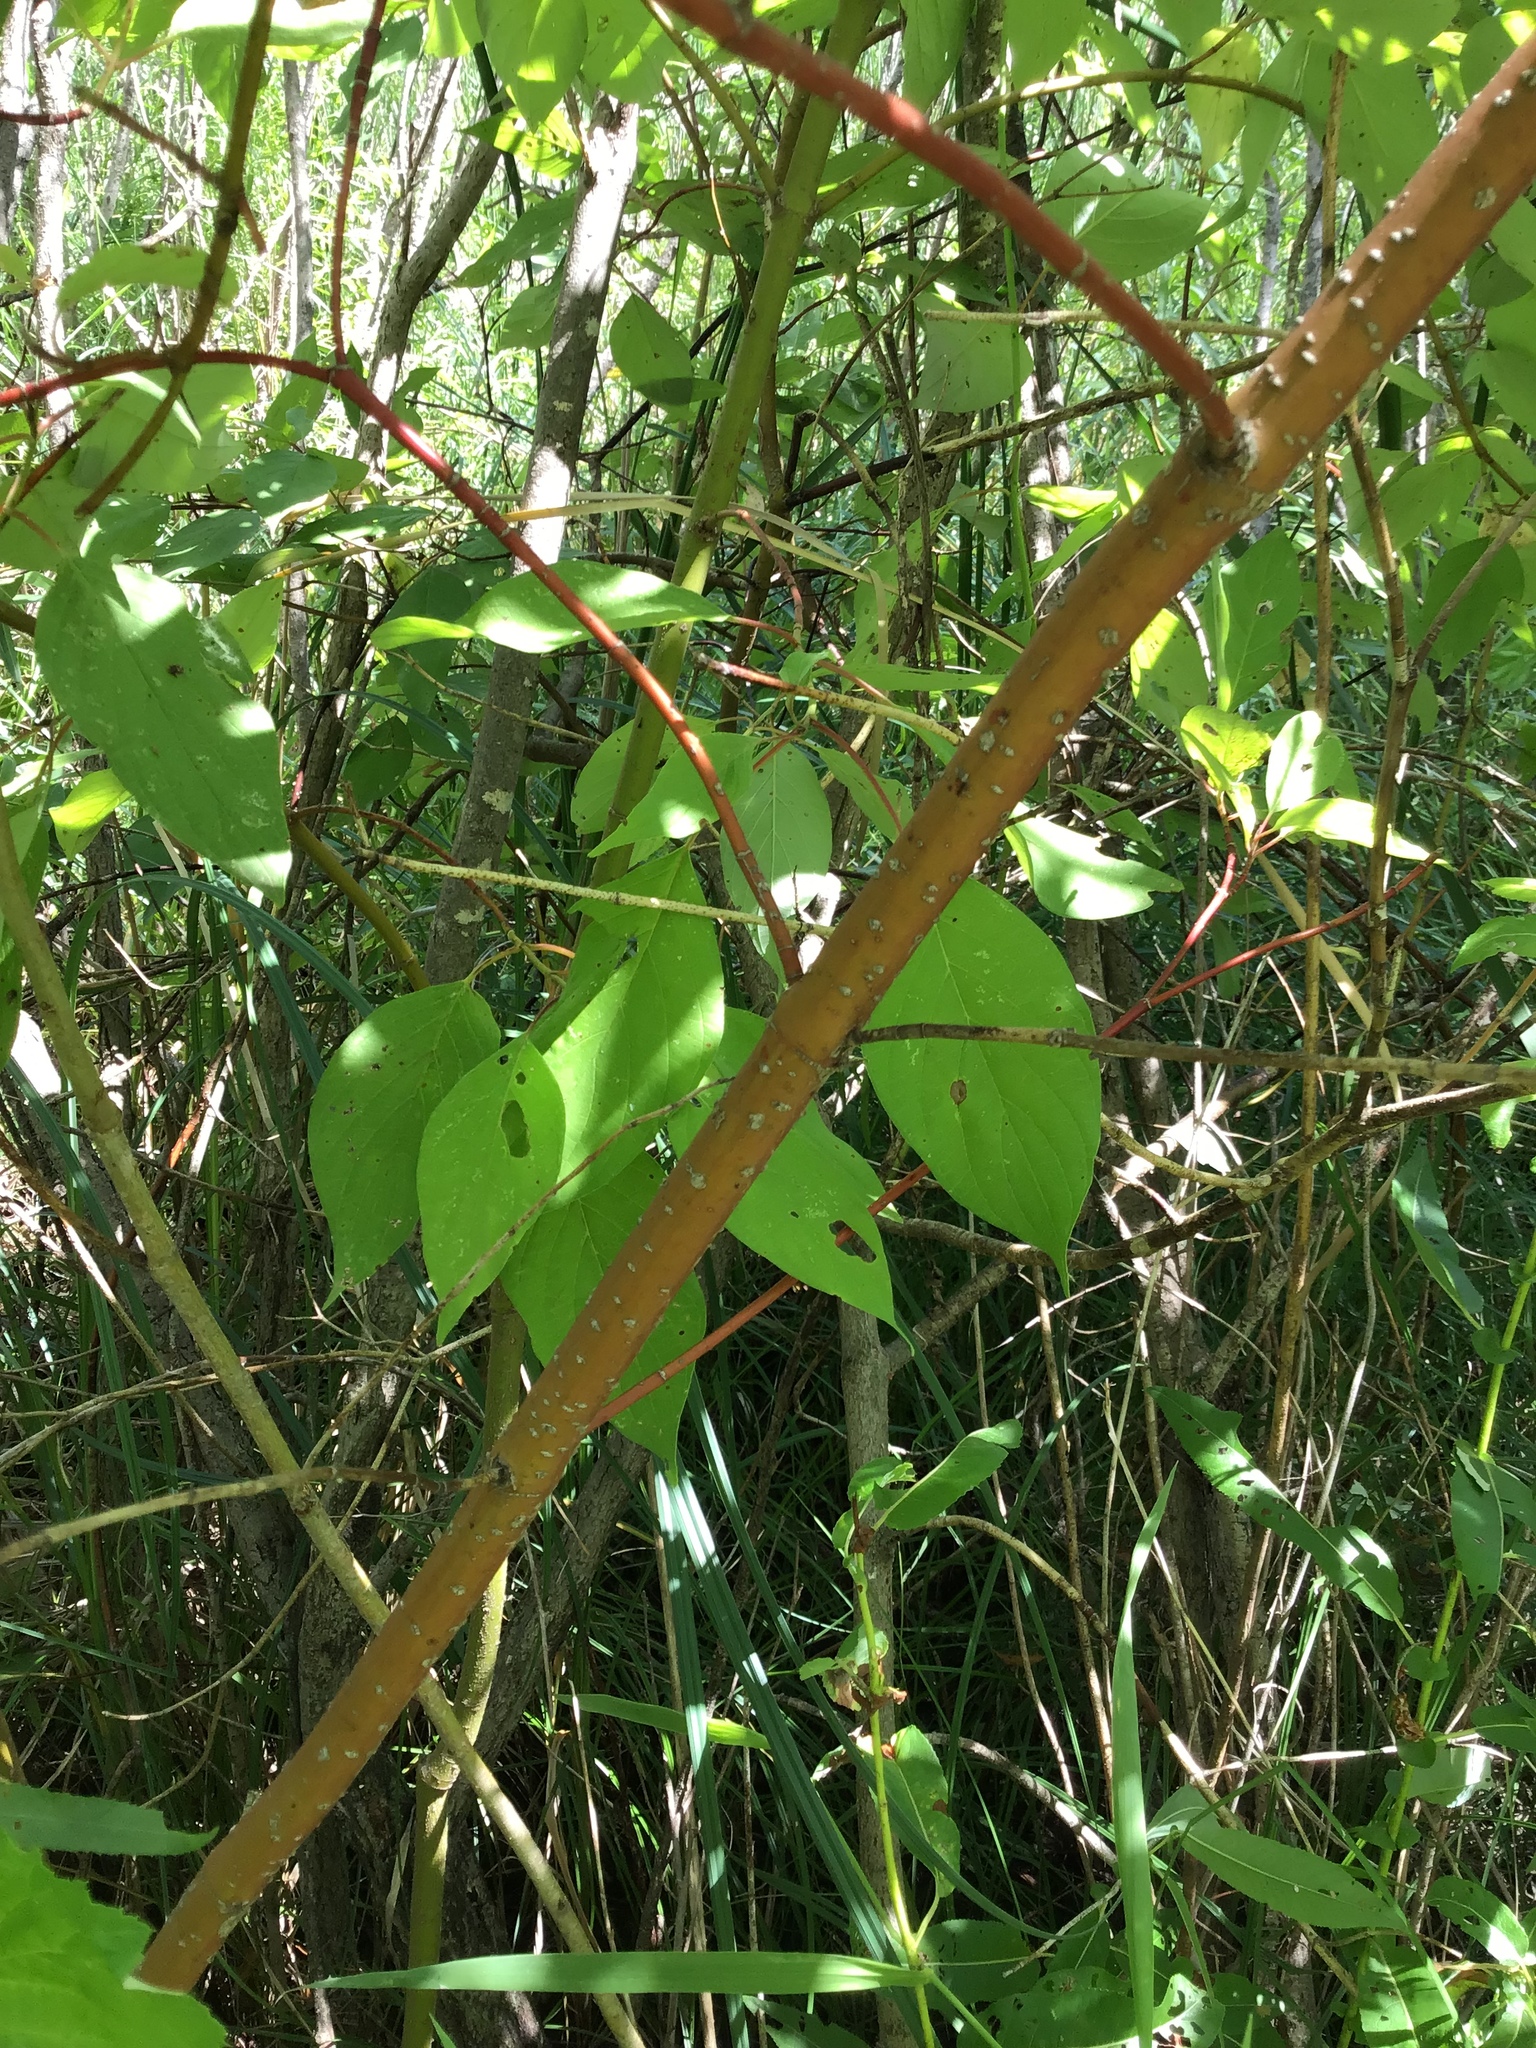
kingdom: Plantae
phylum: Tracheophyta
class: Magnoliopsida
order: Cornales
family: Cornaceae
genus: Cornus
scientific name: Cornus sericea
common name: Red-osier dogwood
